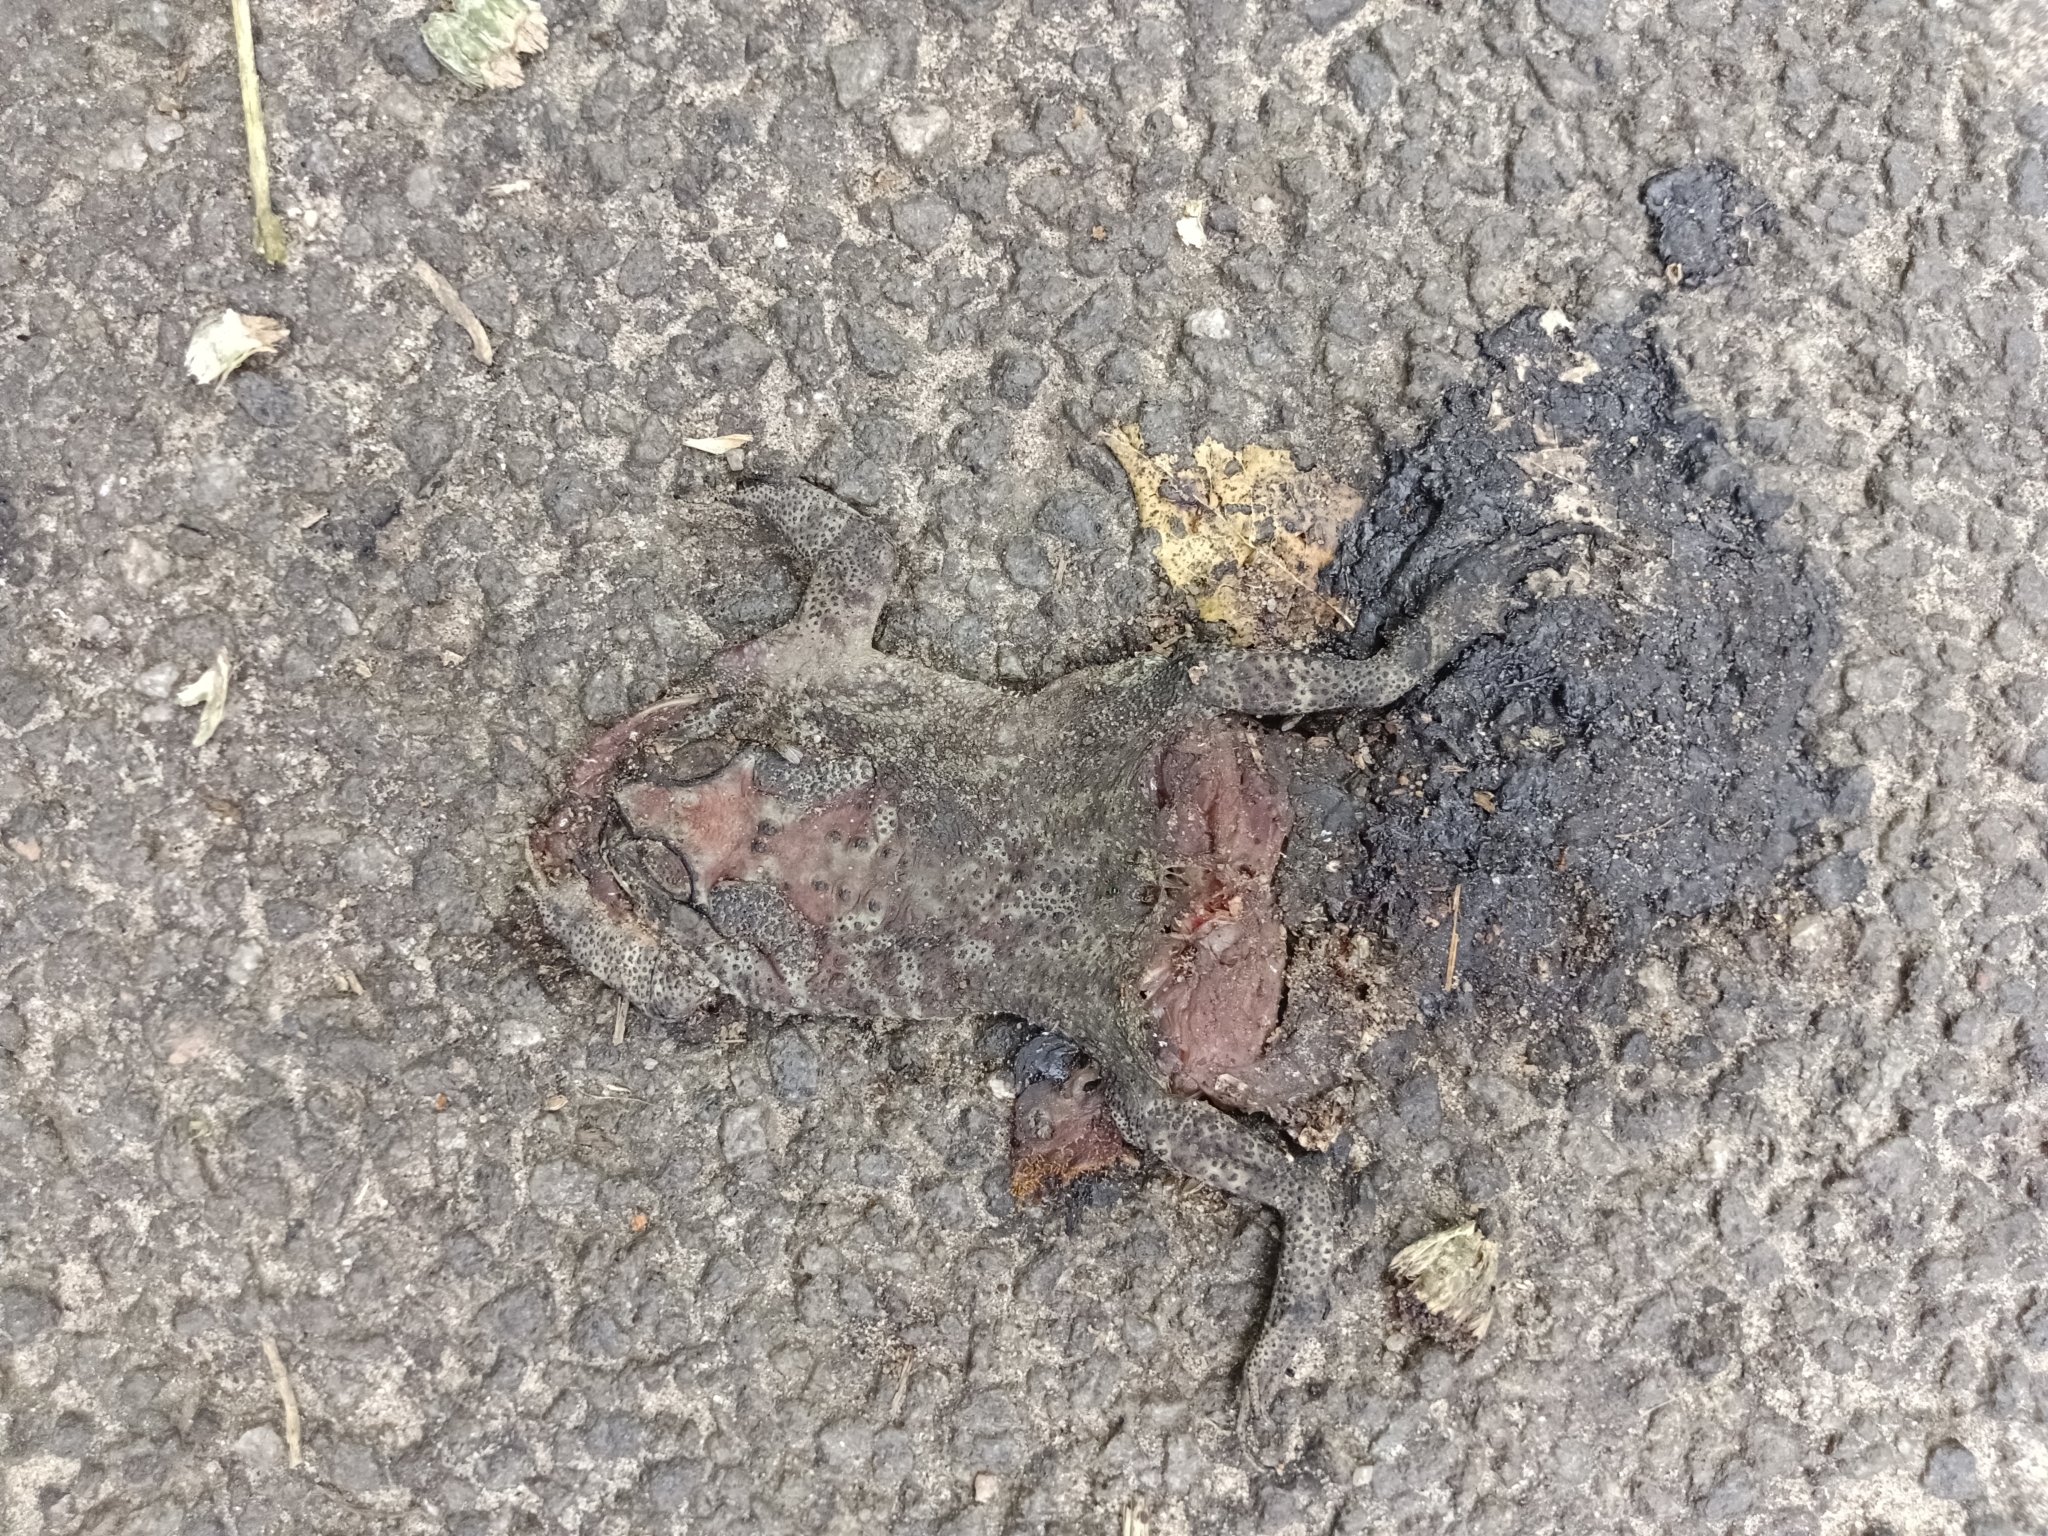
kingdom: Animalia
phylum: Chordata
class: Amphibia
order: Anura
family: Bufonidae
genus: Duttaphrynus
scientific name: Duttaphrynus melanostictus
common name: Common sunda toad
